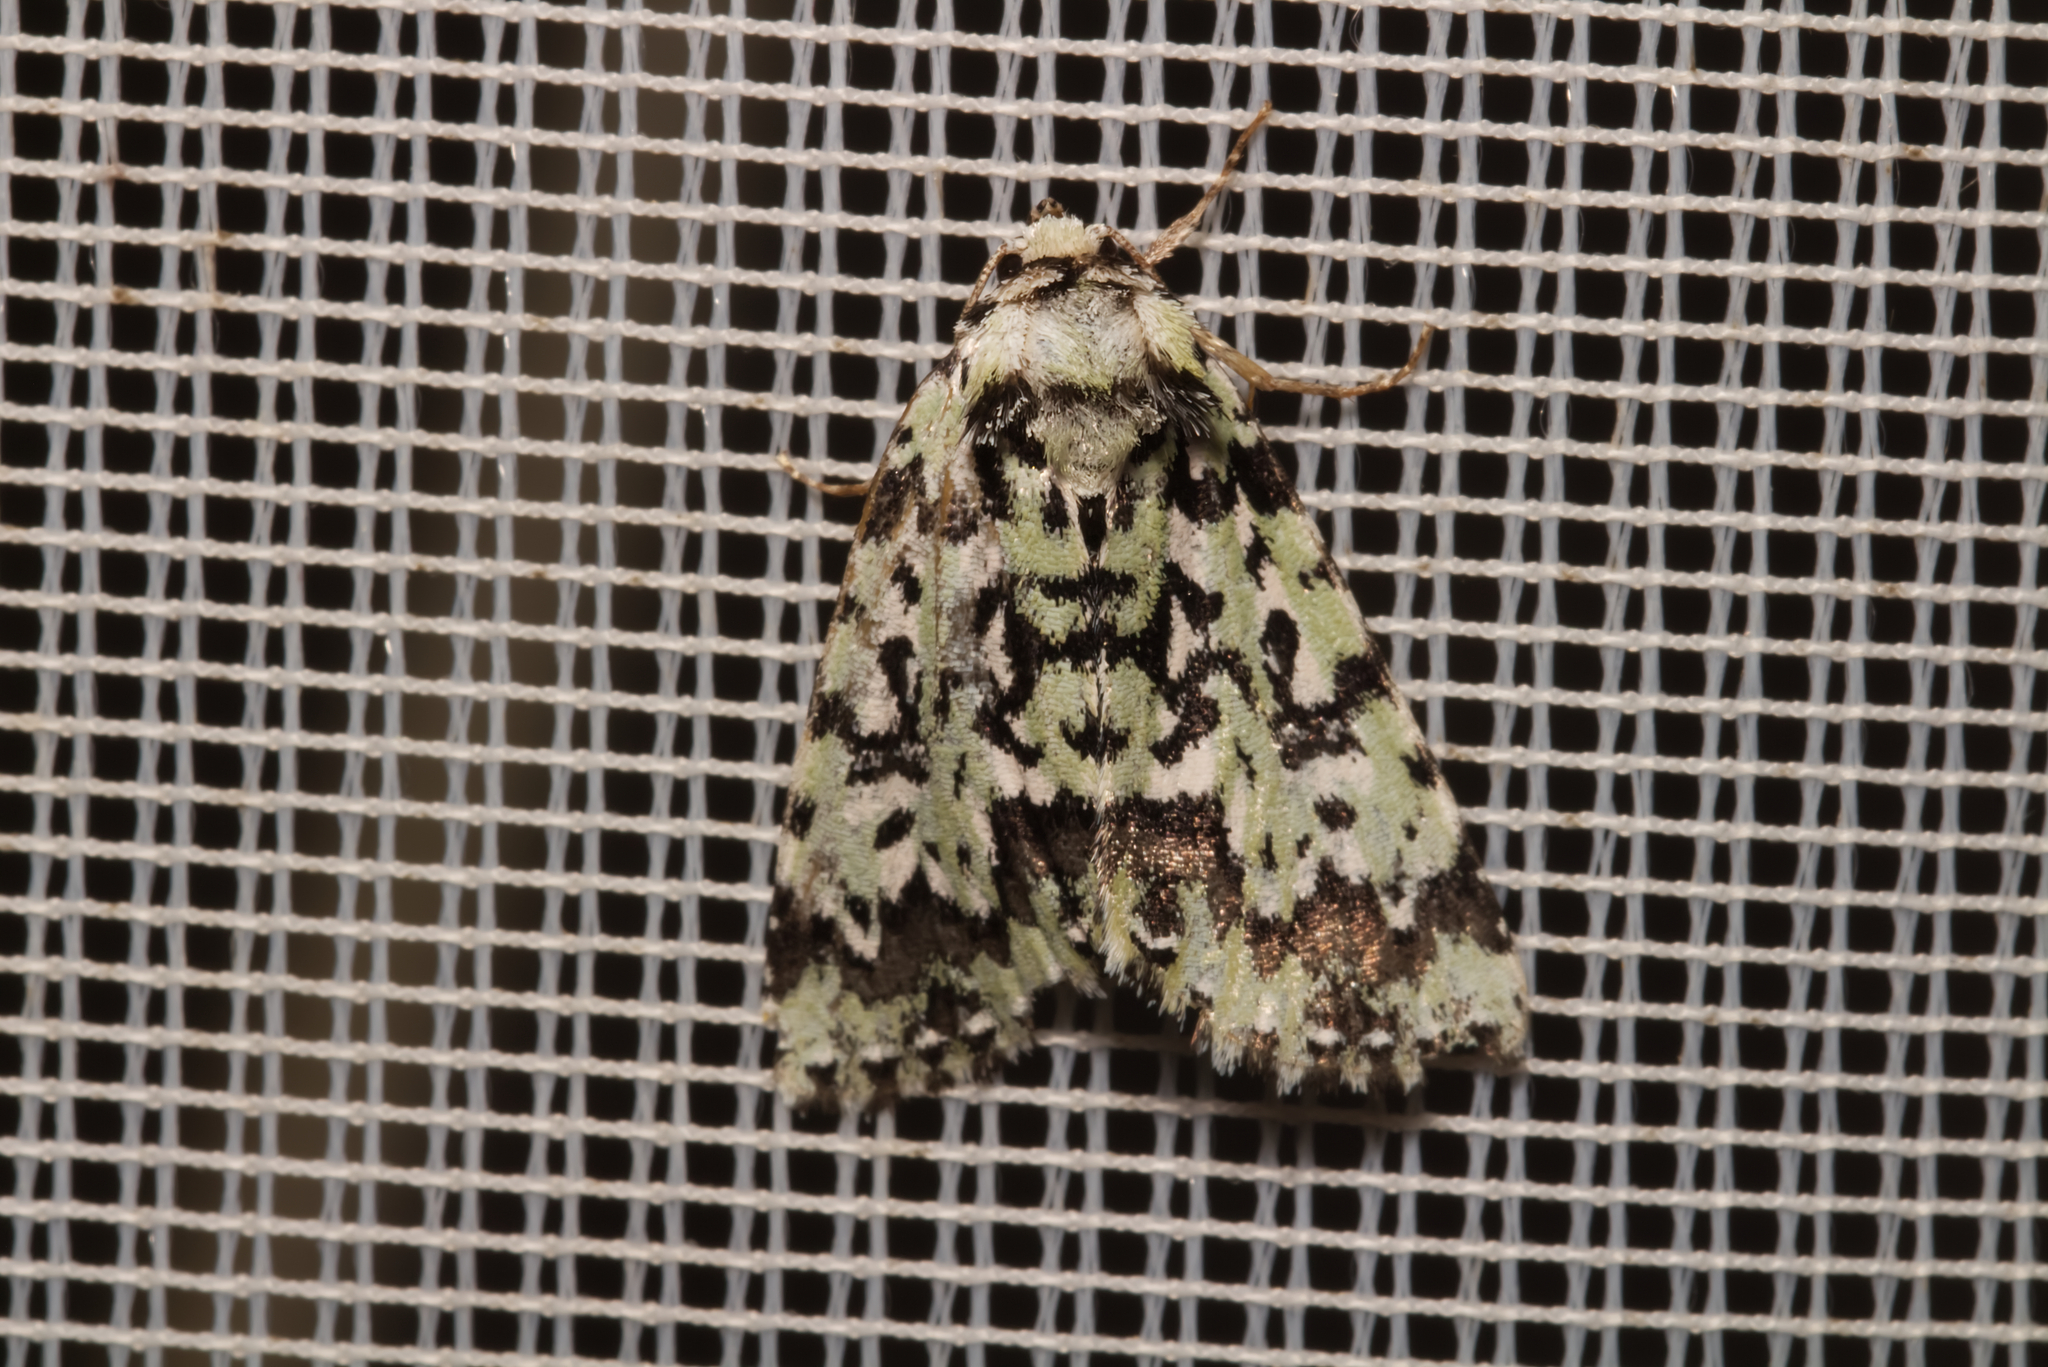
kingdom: Animalia
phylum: Arthropoda
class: Insecta
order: Lepidoptera
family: Noctuidae
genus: Moma
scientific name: Moma alpium
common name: Scarce merveille du jour
